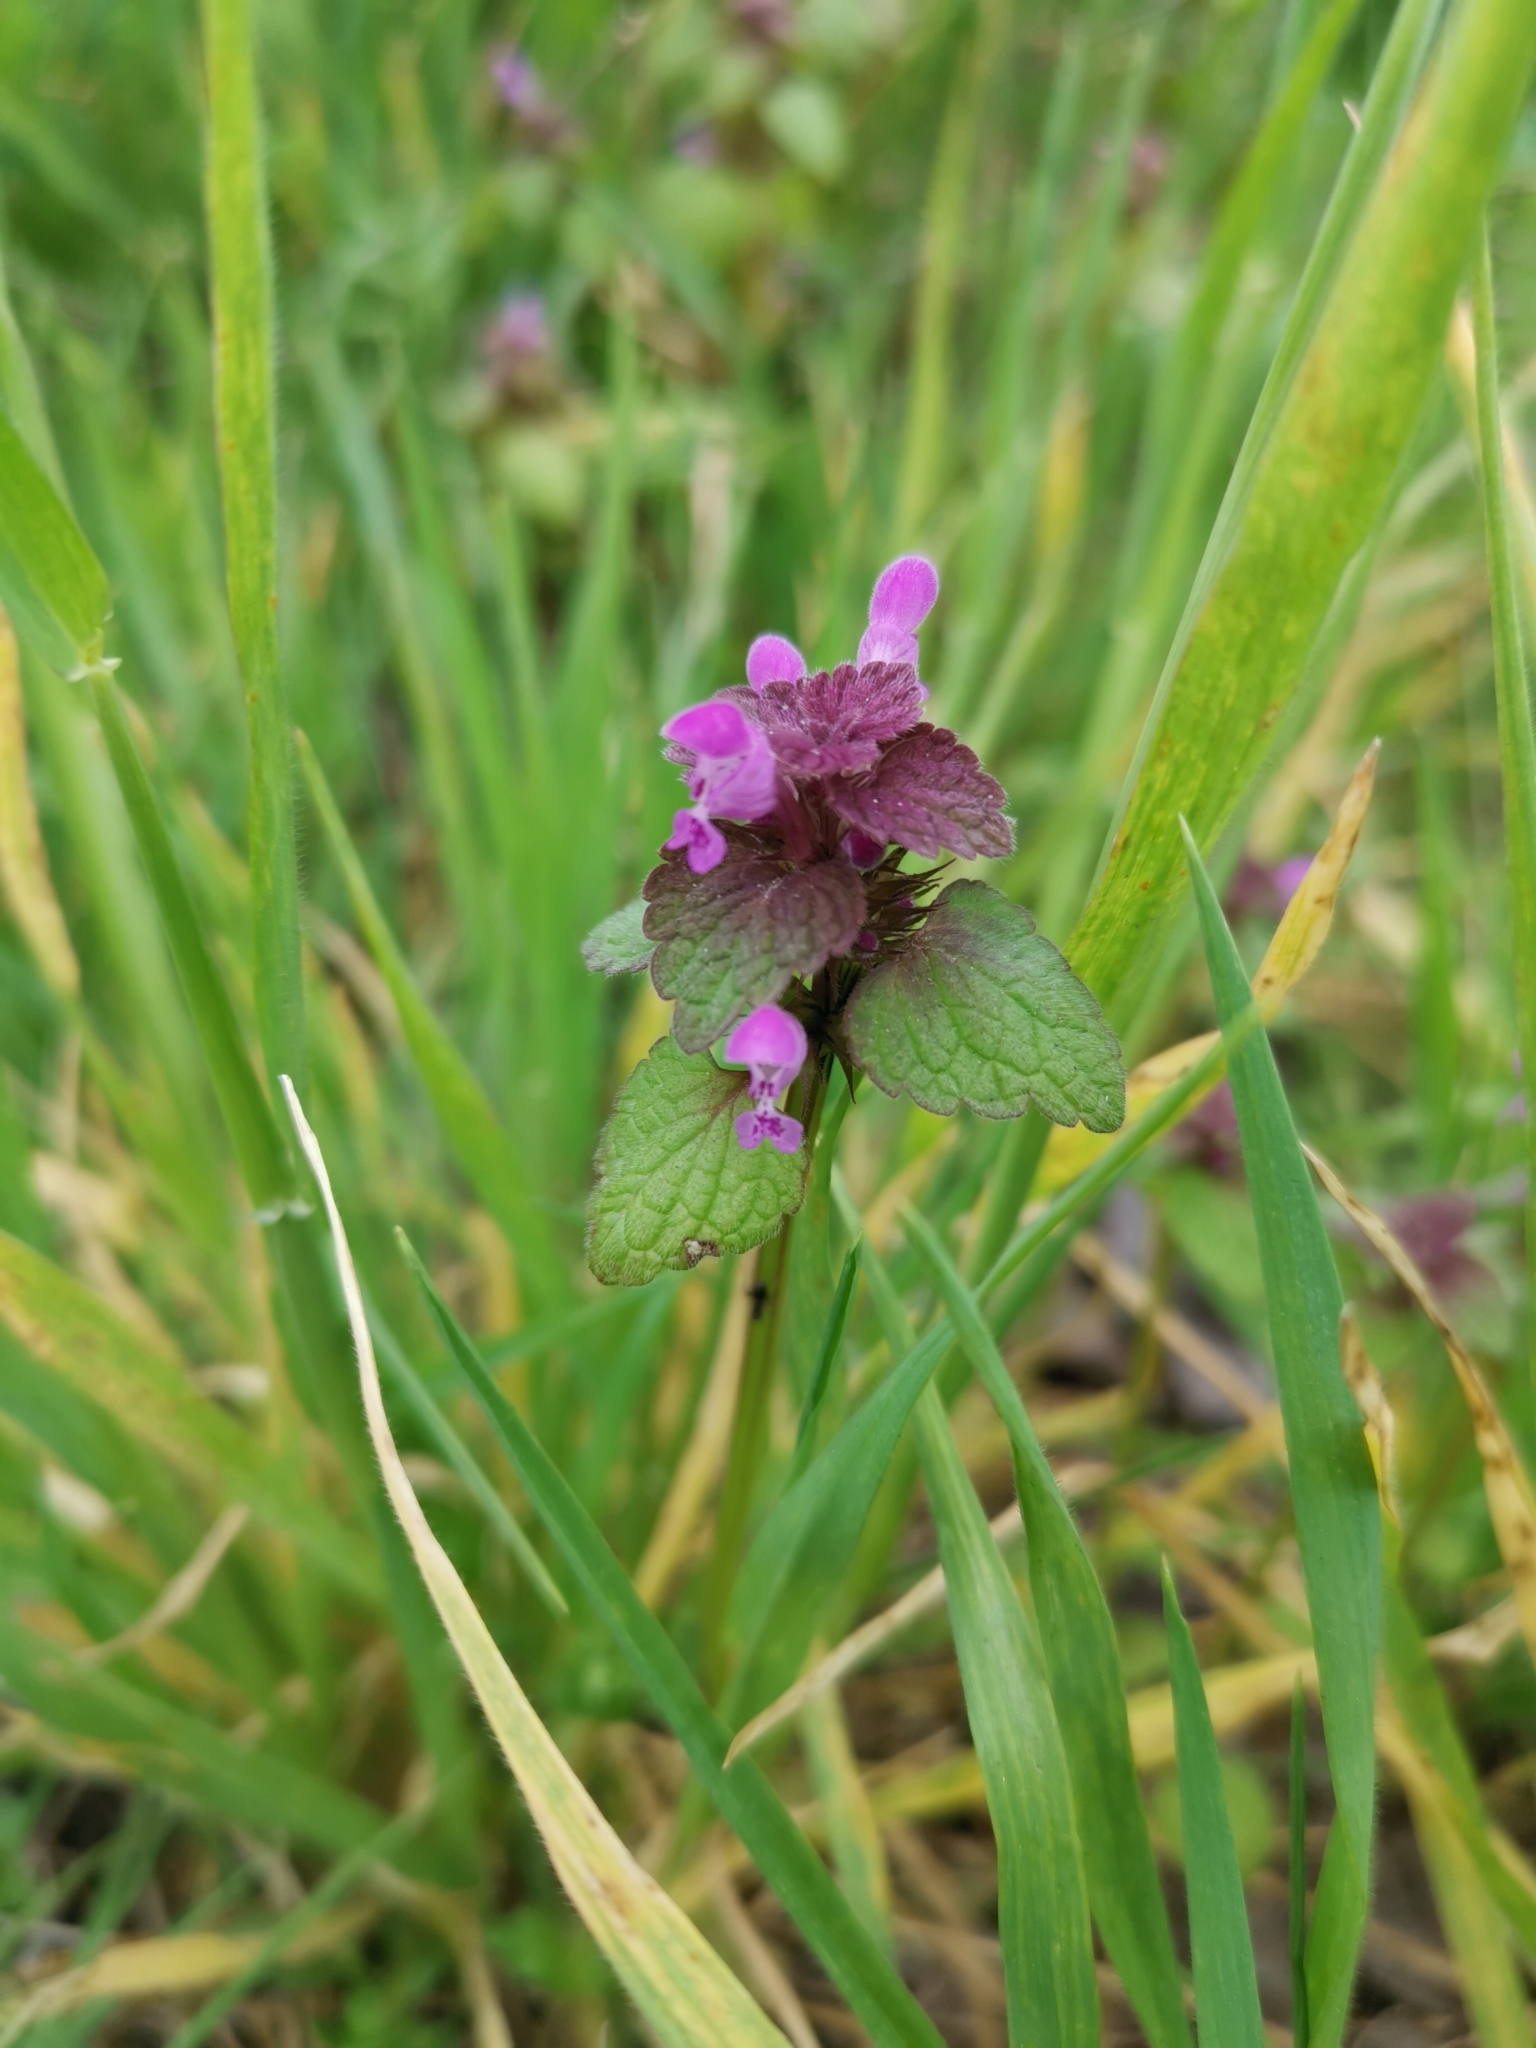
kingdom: Plantae
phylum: Tracheophyta
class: Magnoliopsida
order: Lamiales
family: Lamiaceae
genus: Lamium
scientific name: Lamium purpureum
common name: Red dead-nettle
